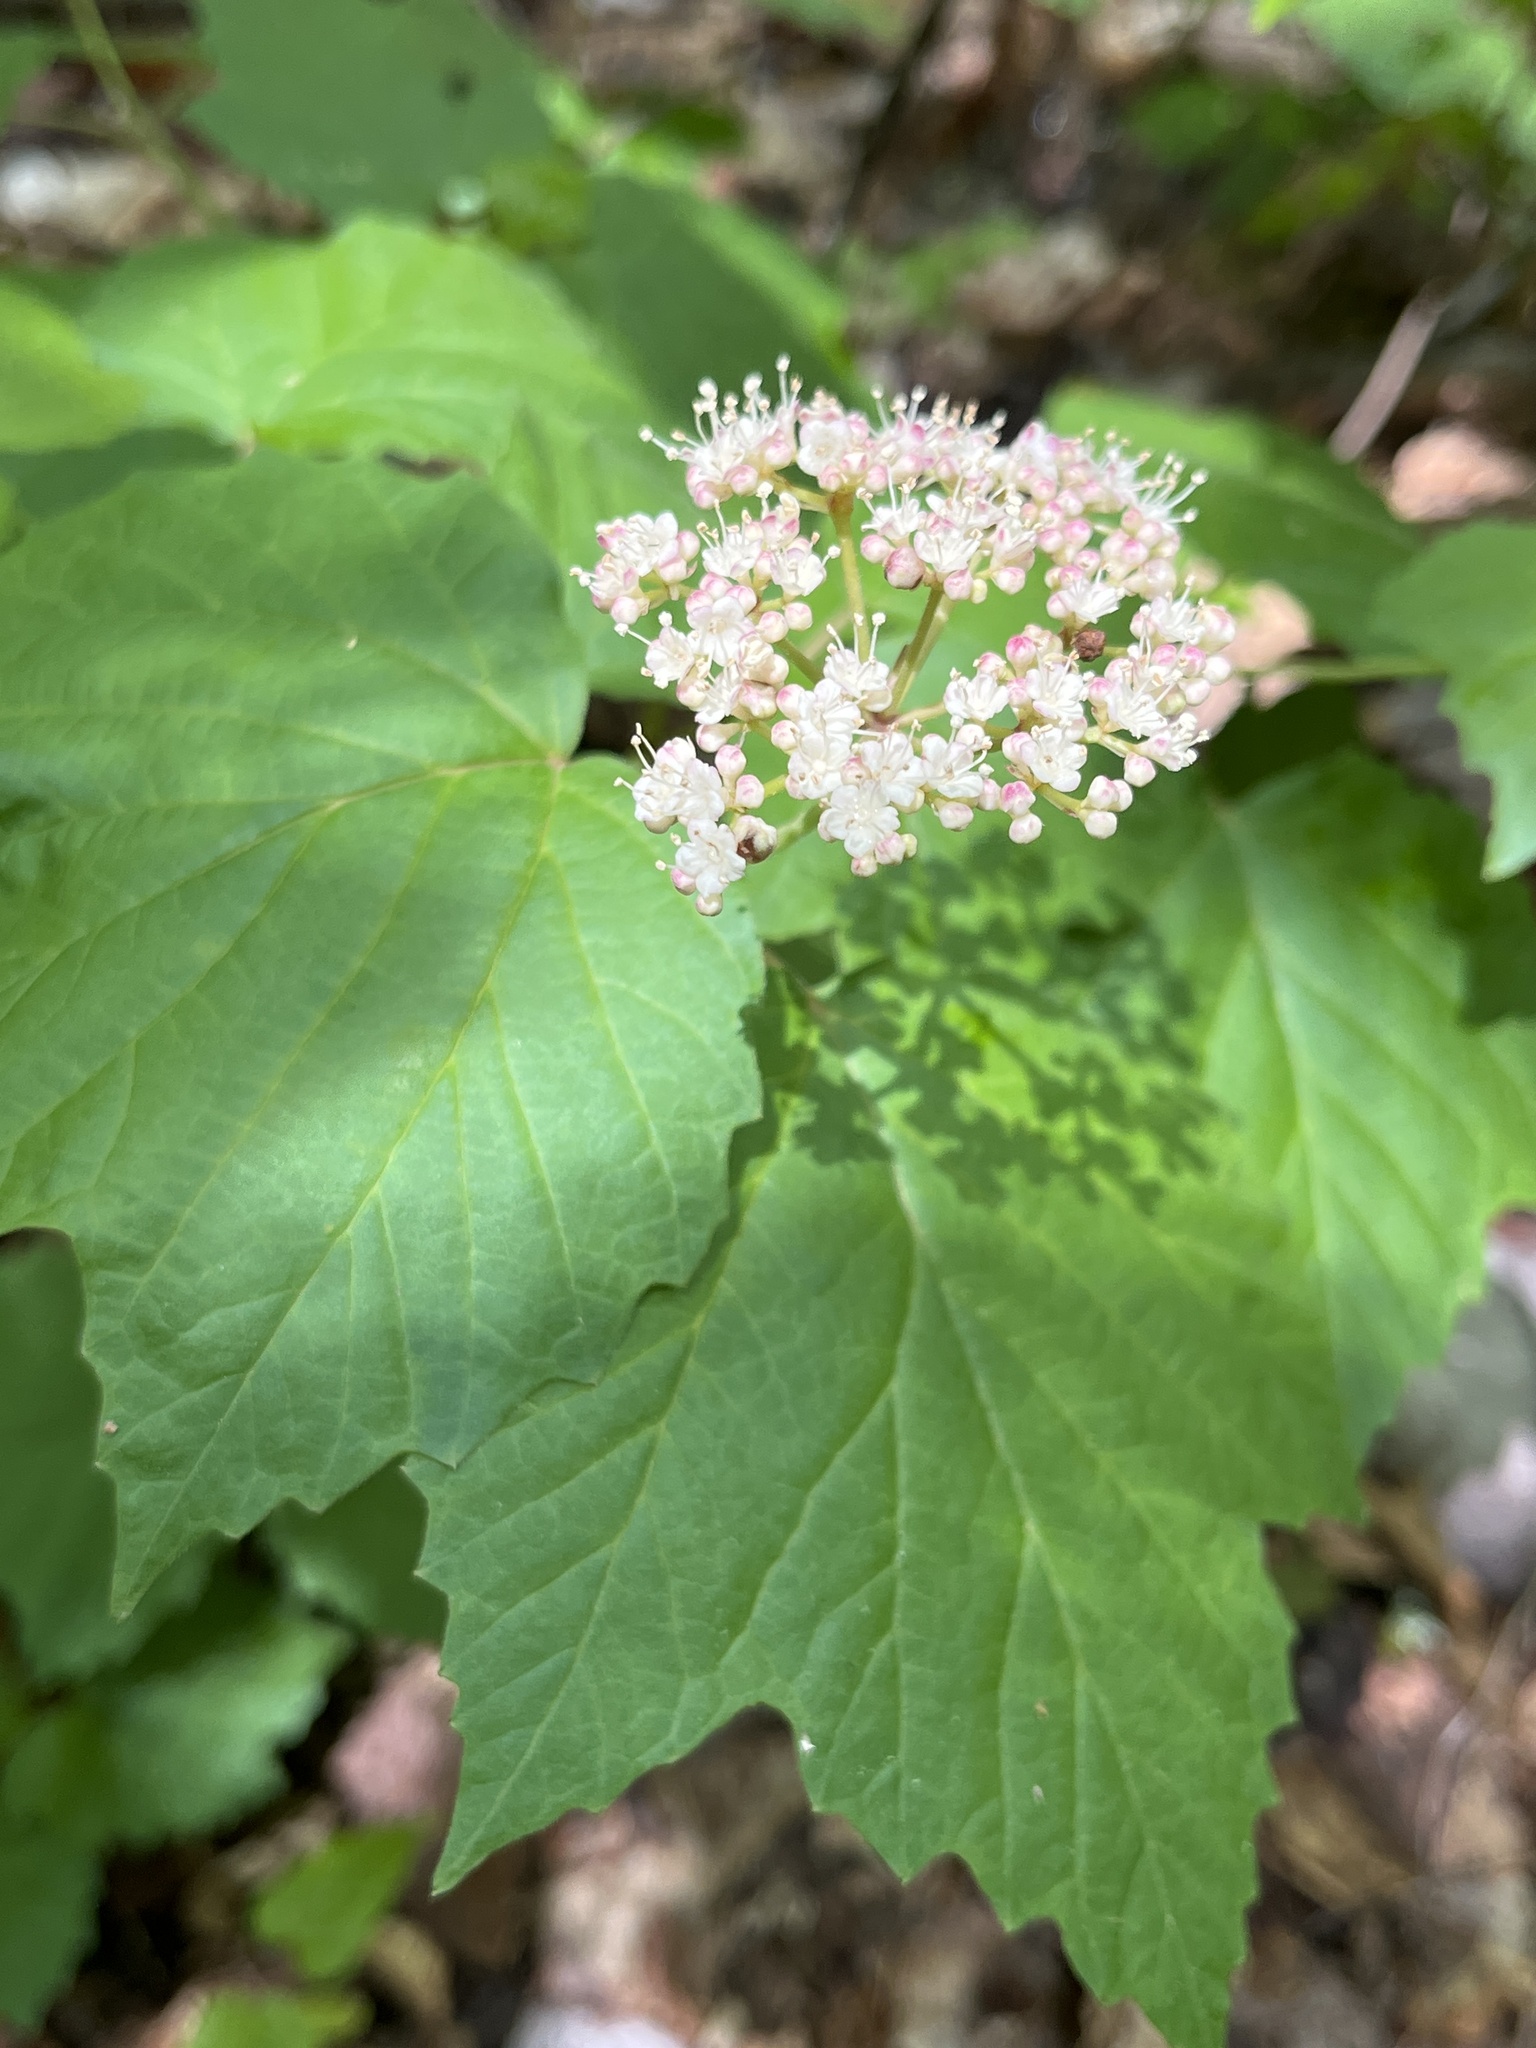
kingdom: Plantae
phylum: Tracheophyta
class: Magnoliopsida
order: Dipsacales
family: Viburnaceae
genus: Viburnum
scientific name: Viburnum acerifolium
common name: Dockmackie
